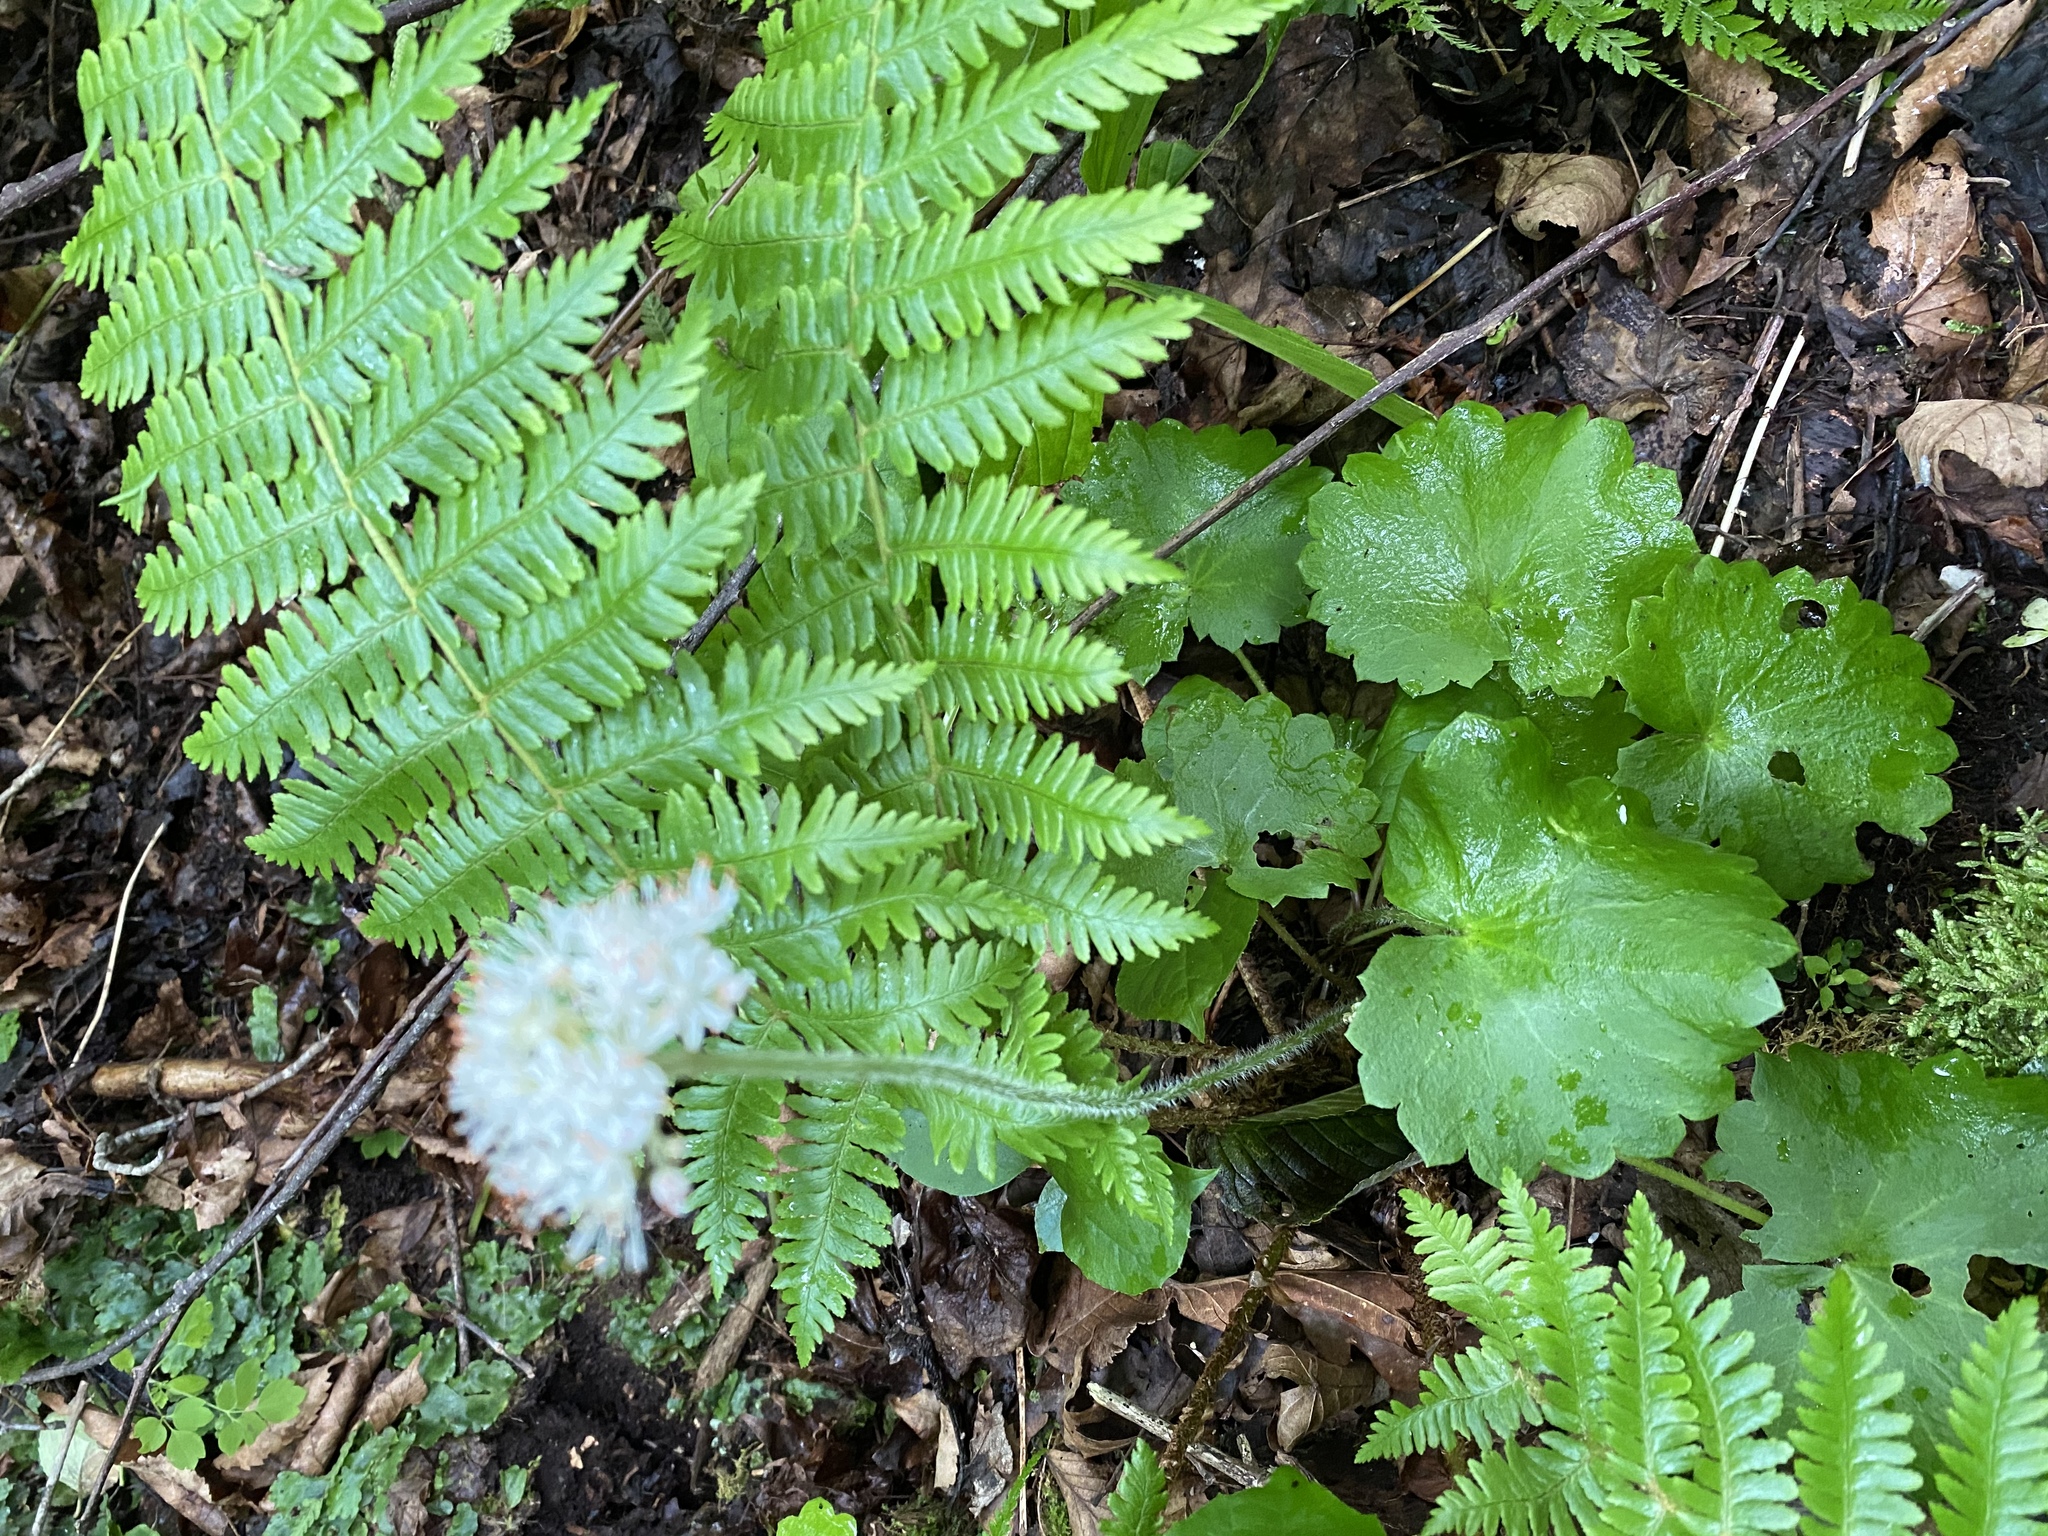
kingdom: Plantae
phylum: Tracheophyta
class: Magnoliopsida
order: Saxifragales
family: Saxifragaceae
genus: Micranthes
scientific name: Micranthes manchuriensis
